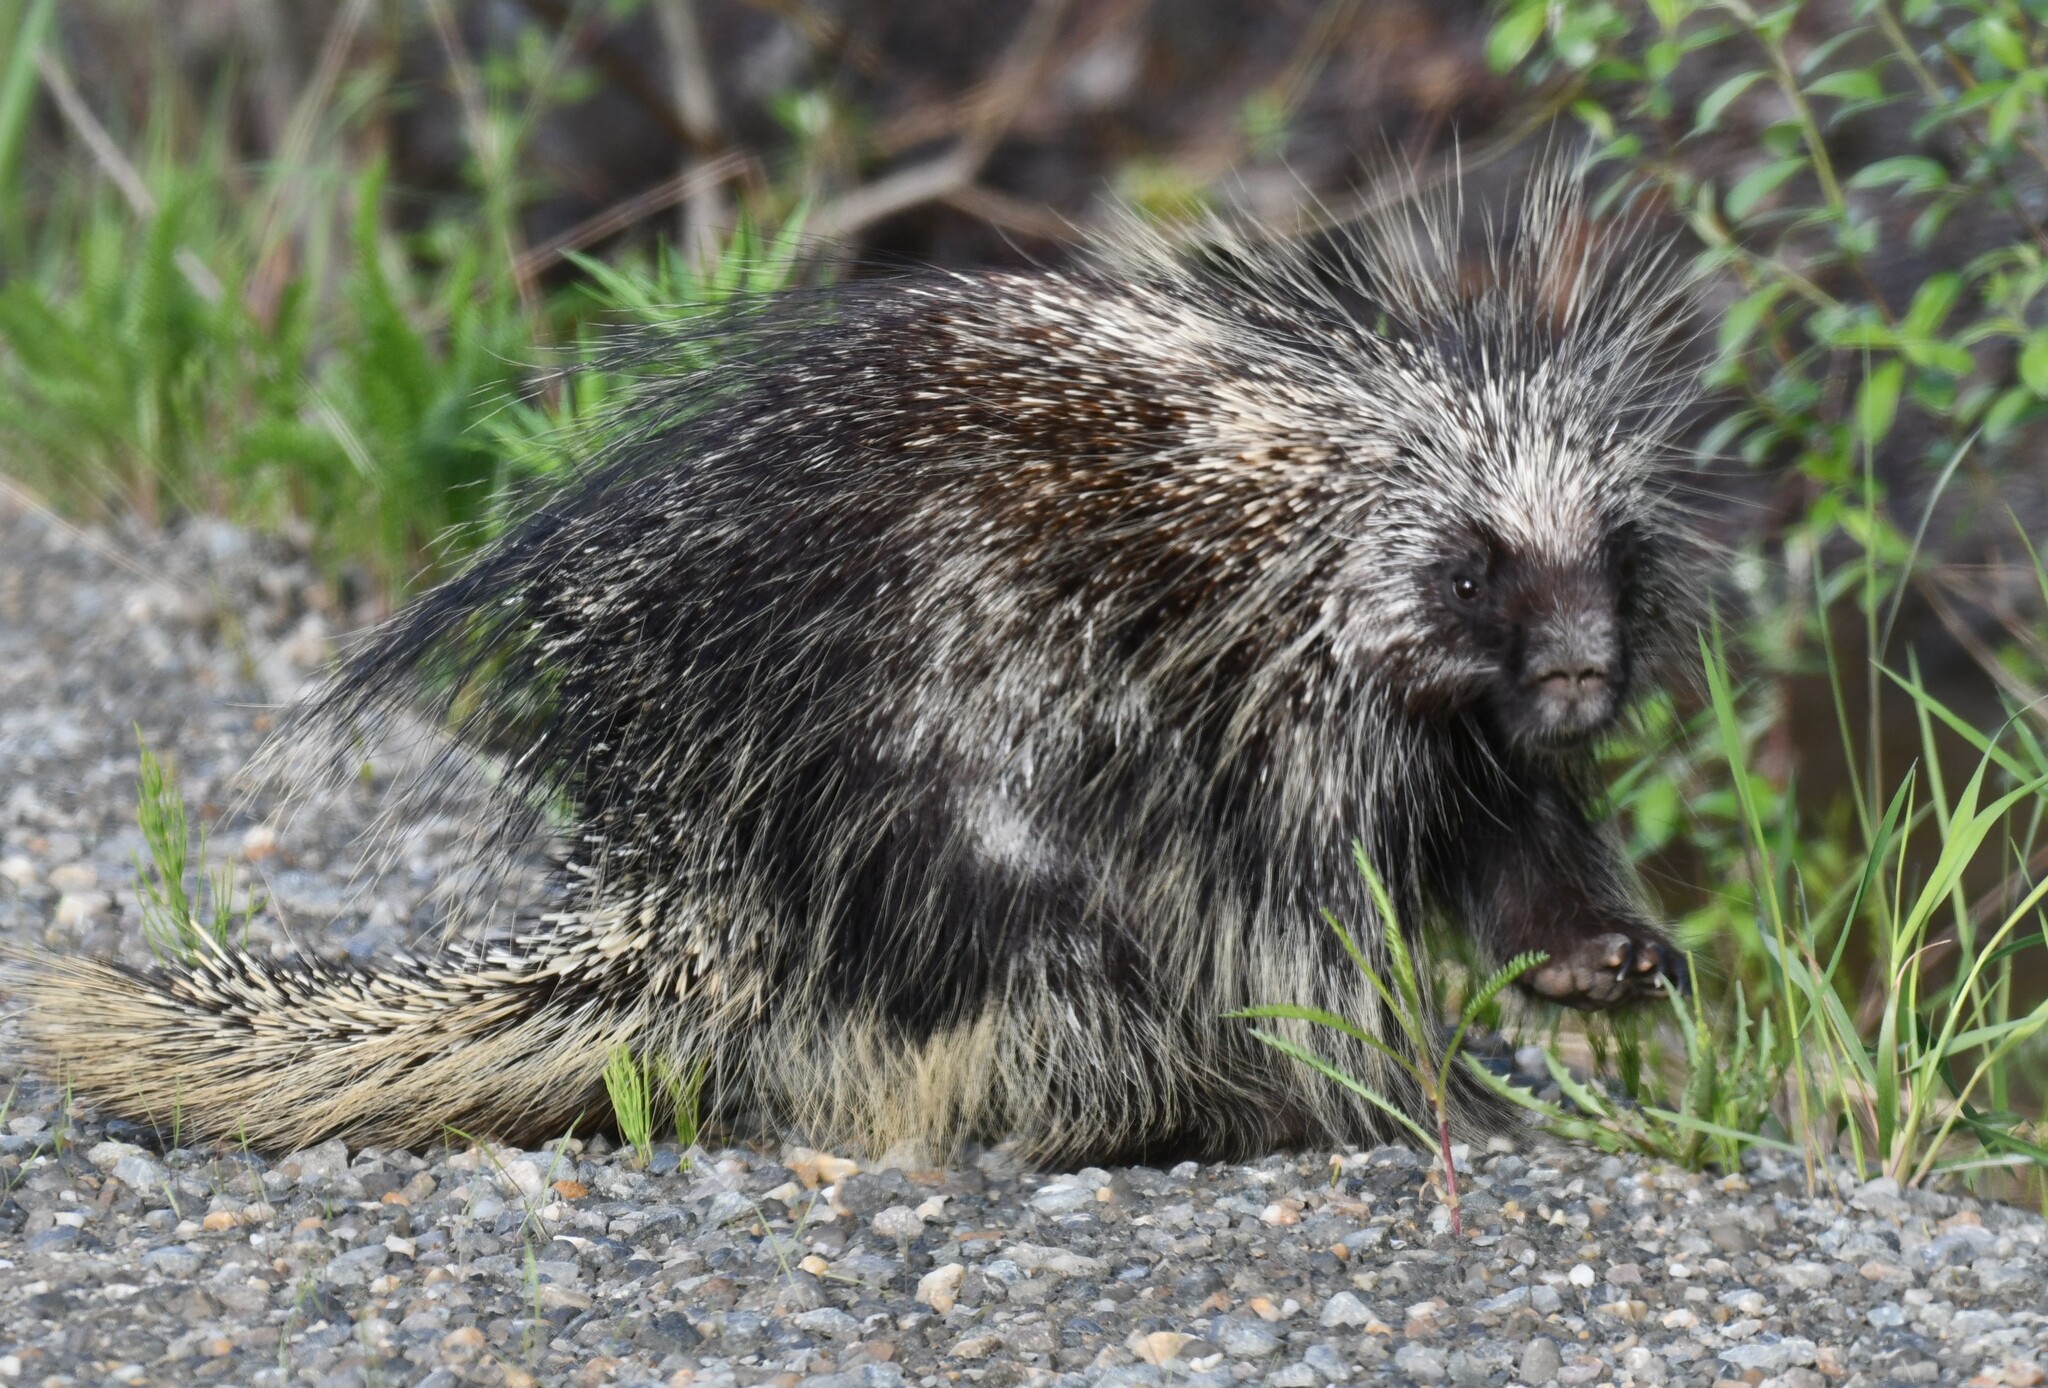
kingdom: Animalia
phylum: Chordata
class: Mammalia
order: Rodentia
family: Erethizontidae
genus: Erethizon
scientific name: Erethizon dorsatus
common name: North american porcupine
